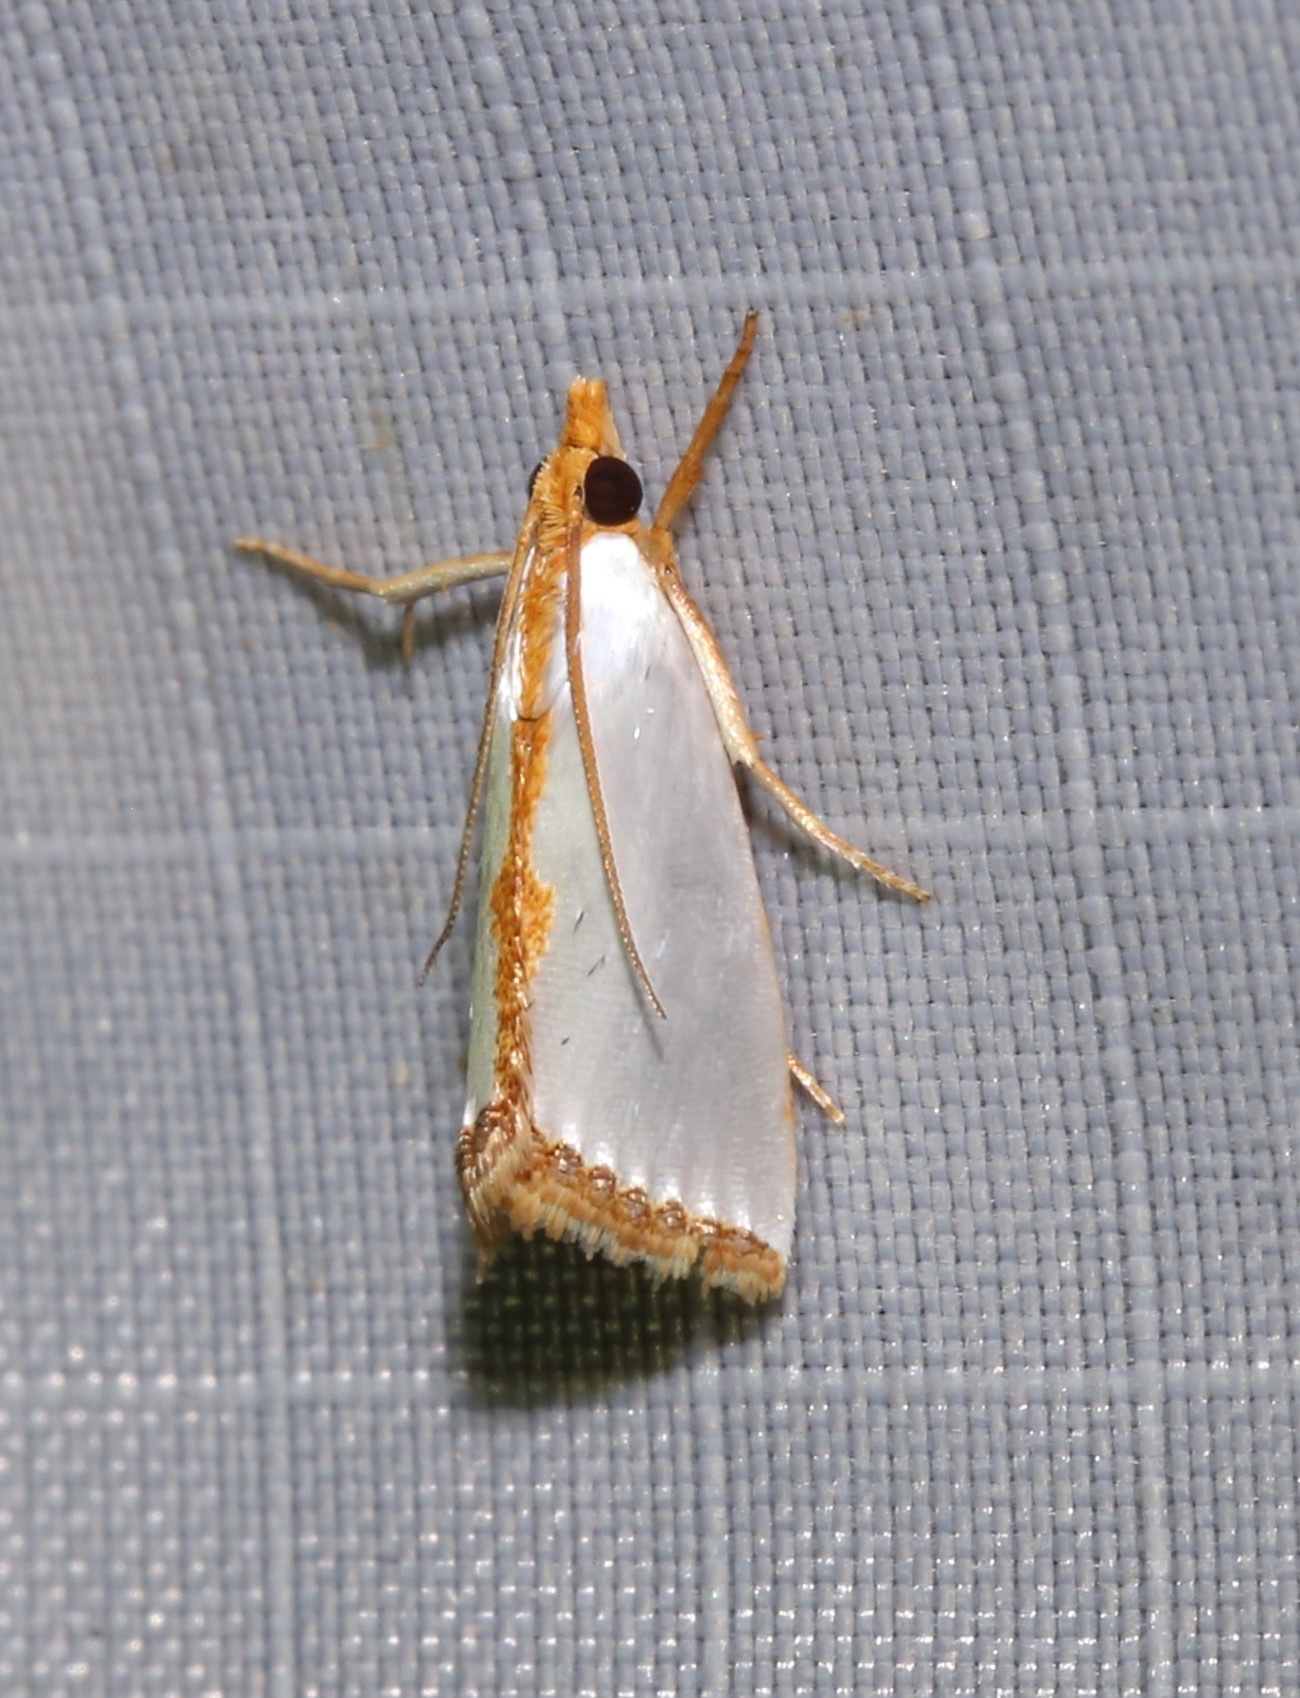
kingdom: Animalia
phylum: Arthropoda
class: Insecta
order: Lepidoptera
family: Crambidae
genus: Argyria
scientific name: Argyria
